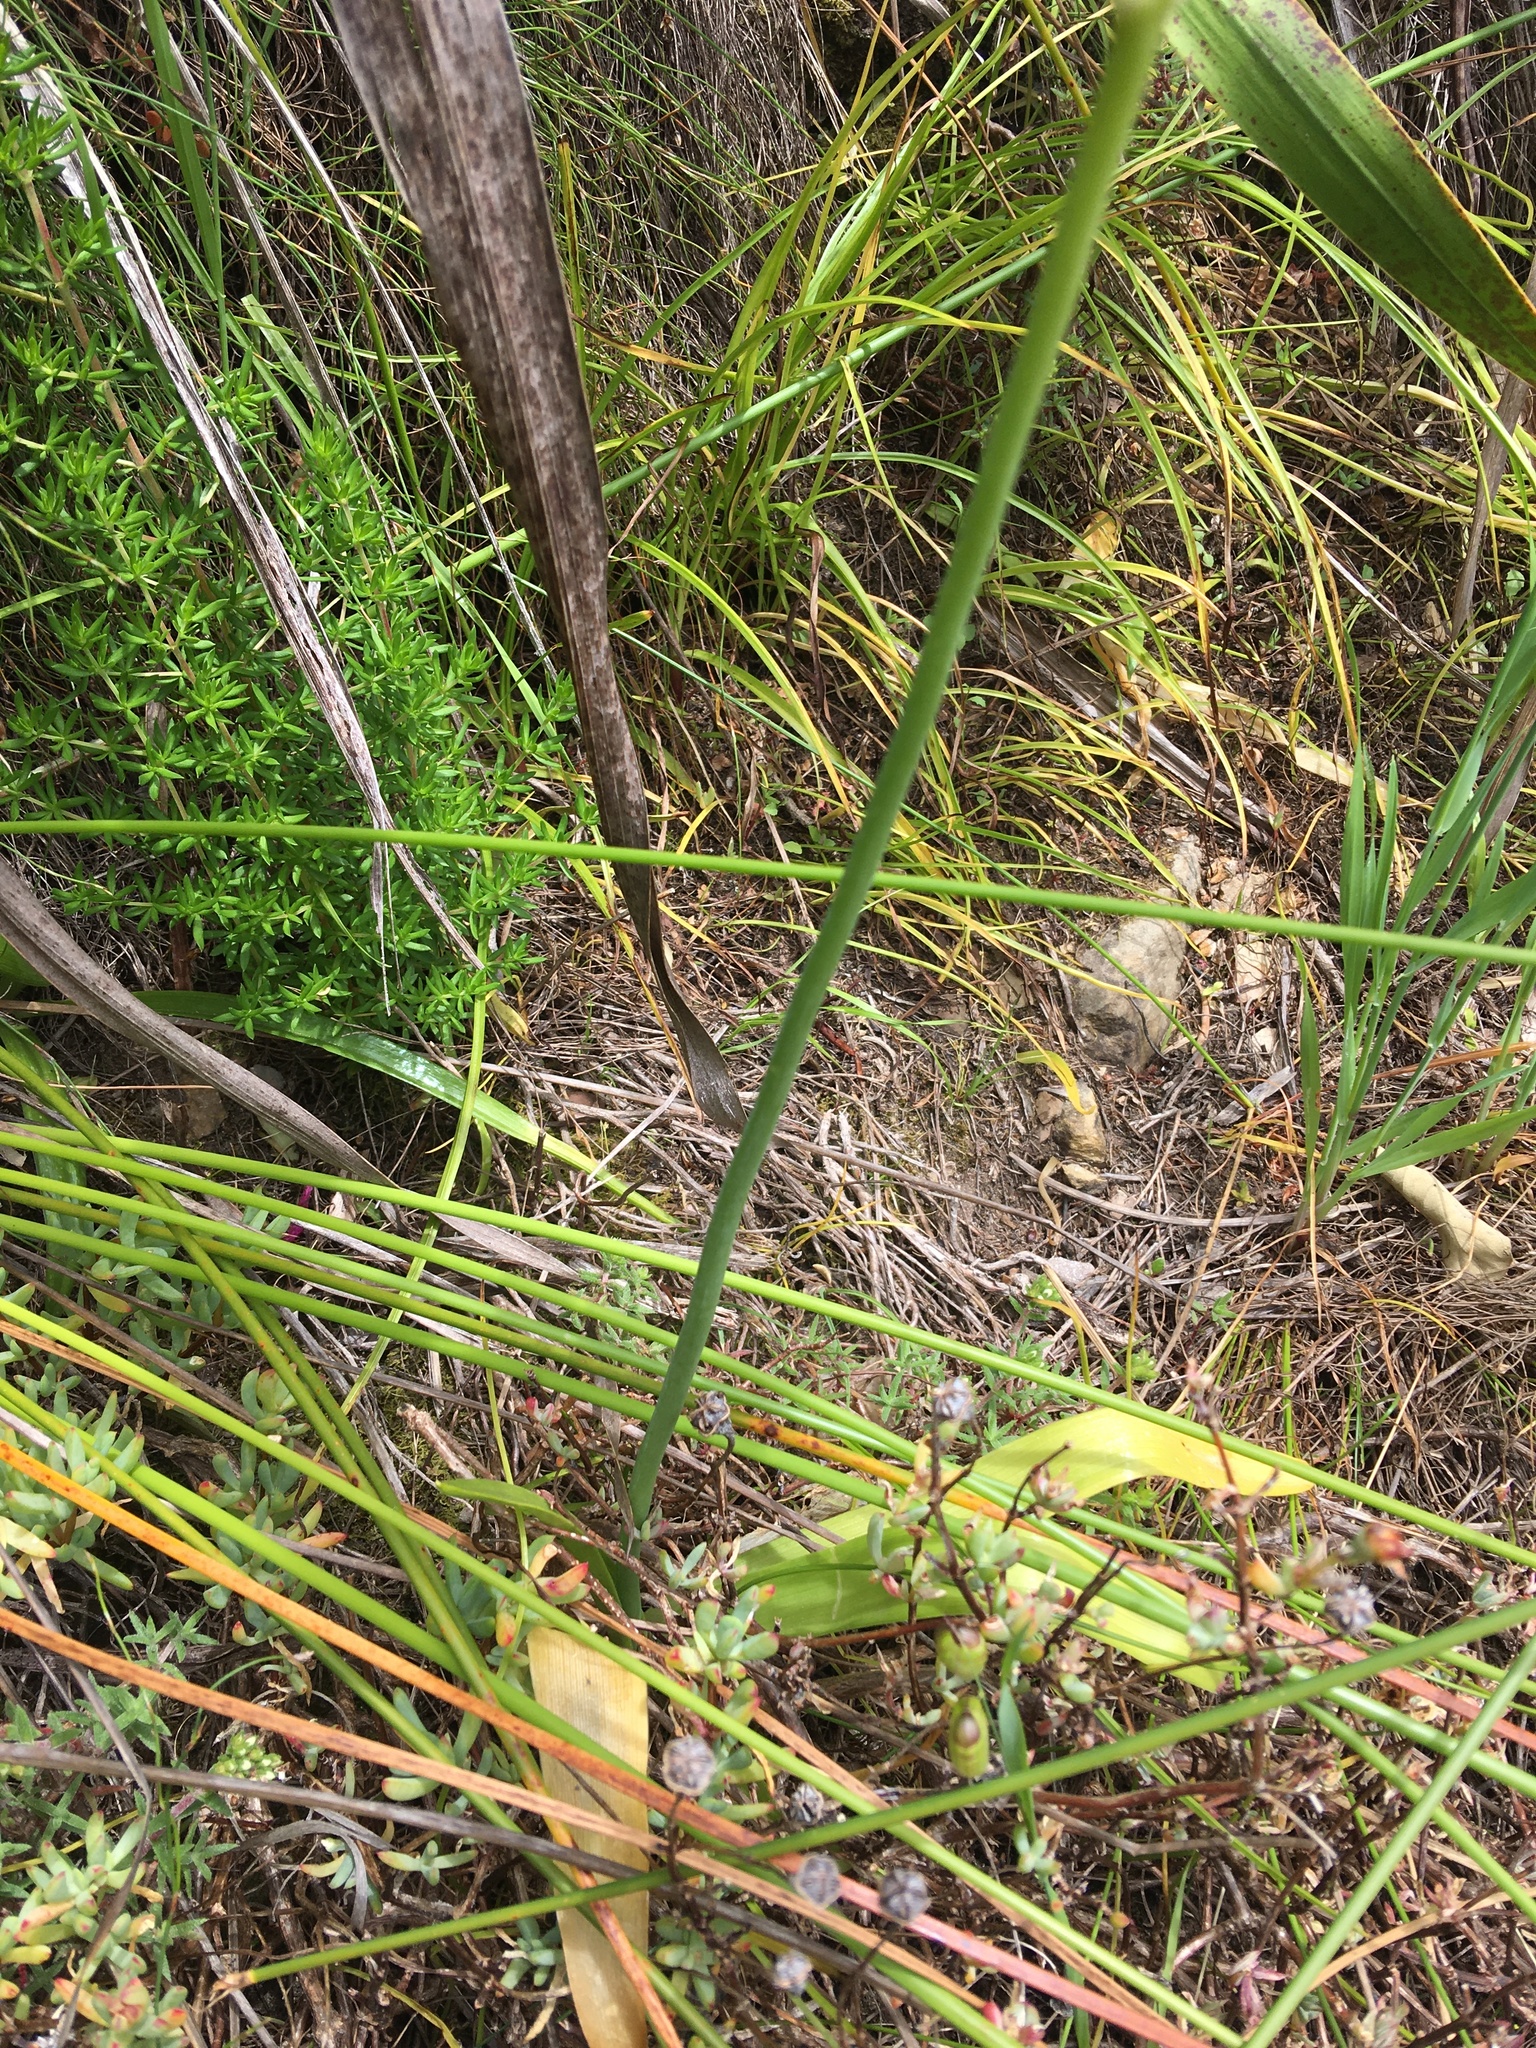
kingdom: Plantae
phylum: Tracheophyta
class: Liliopsida
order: Asparagales
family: Asparagaceae
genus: Ornithogalum
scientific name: Ornithogalum thyrsoides
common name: Chincherinchee
